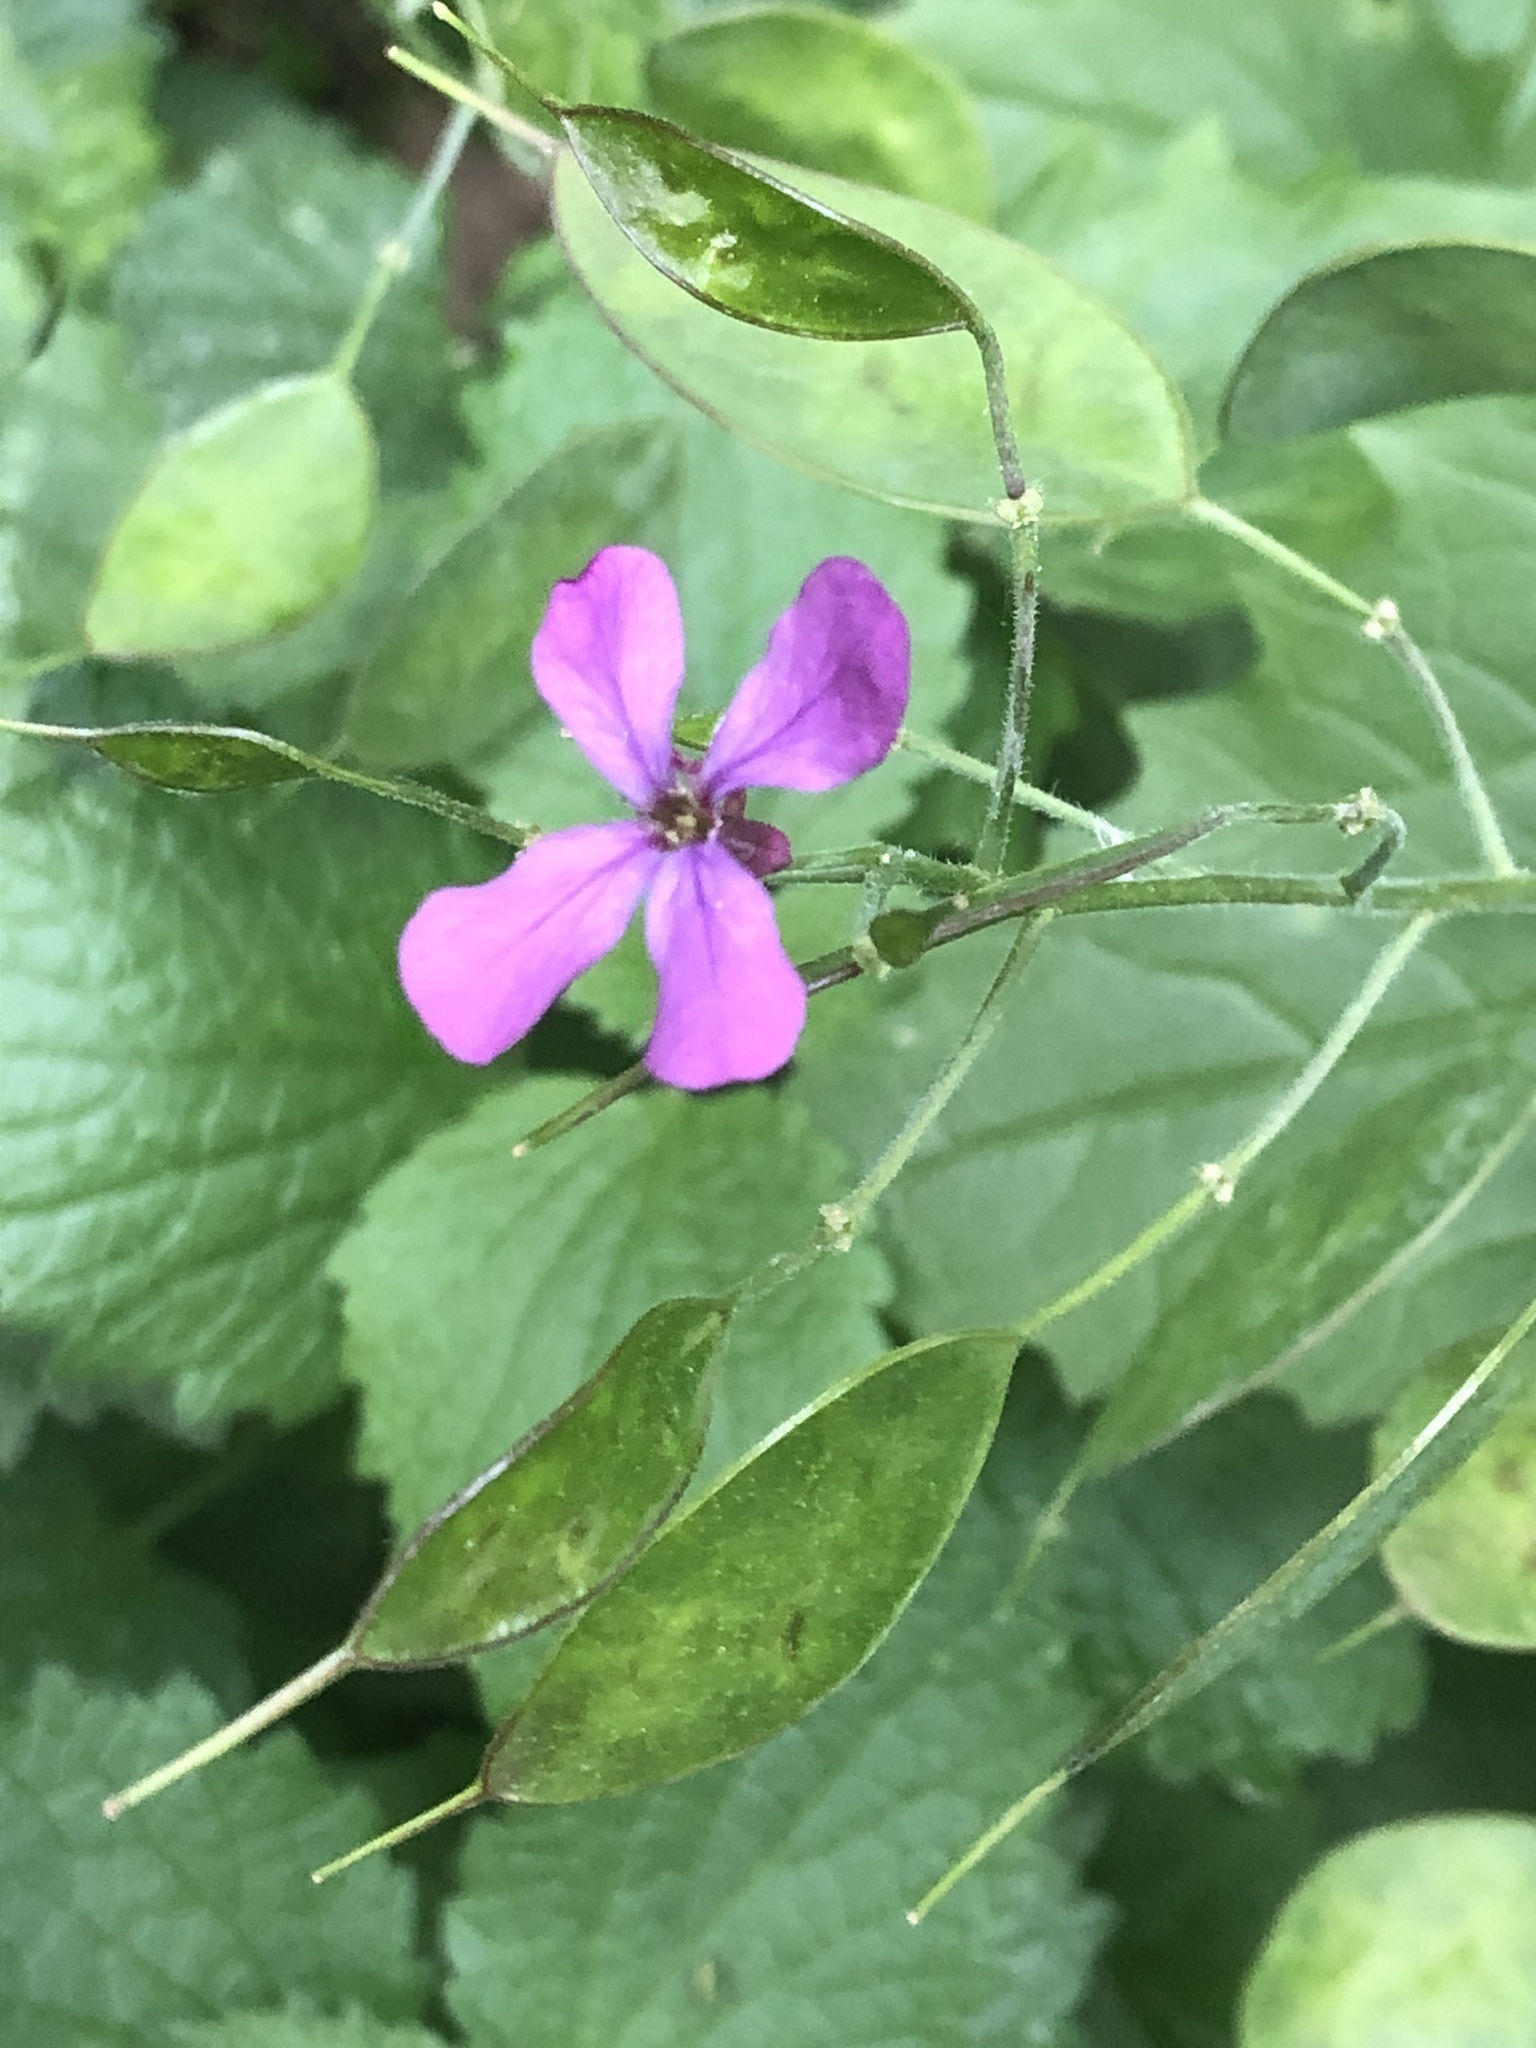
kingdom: Plantae
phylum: Tracheophyta
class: Magnoliopsida
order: Brassicales
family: Brassicaceae
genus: Lunaria
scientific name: Lunaria annua
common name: Honesty
